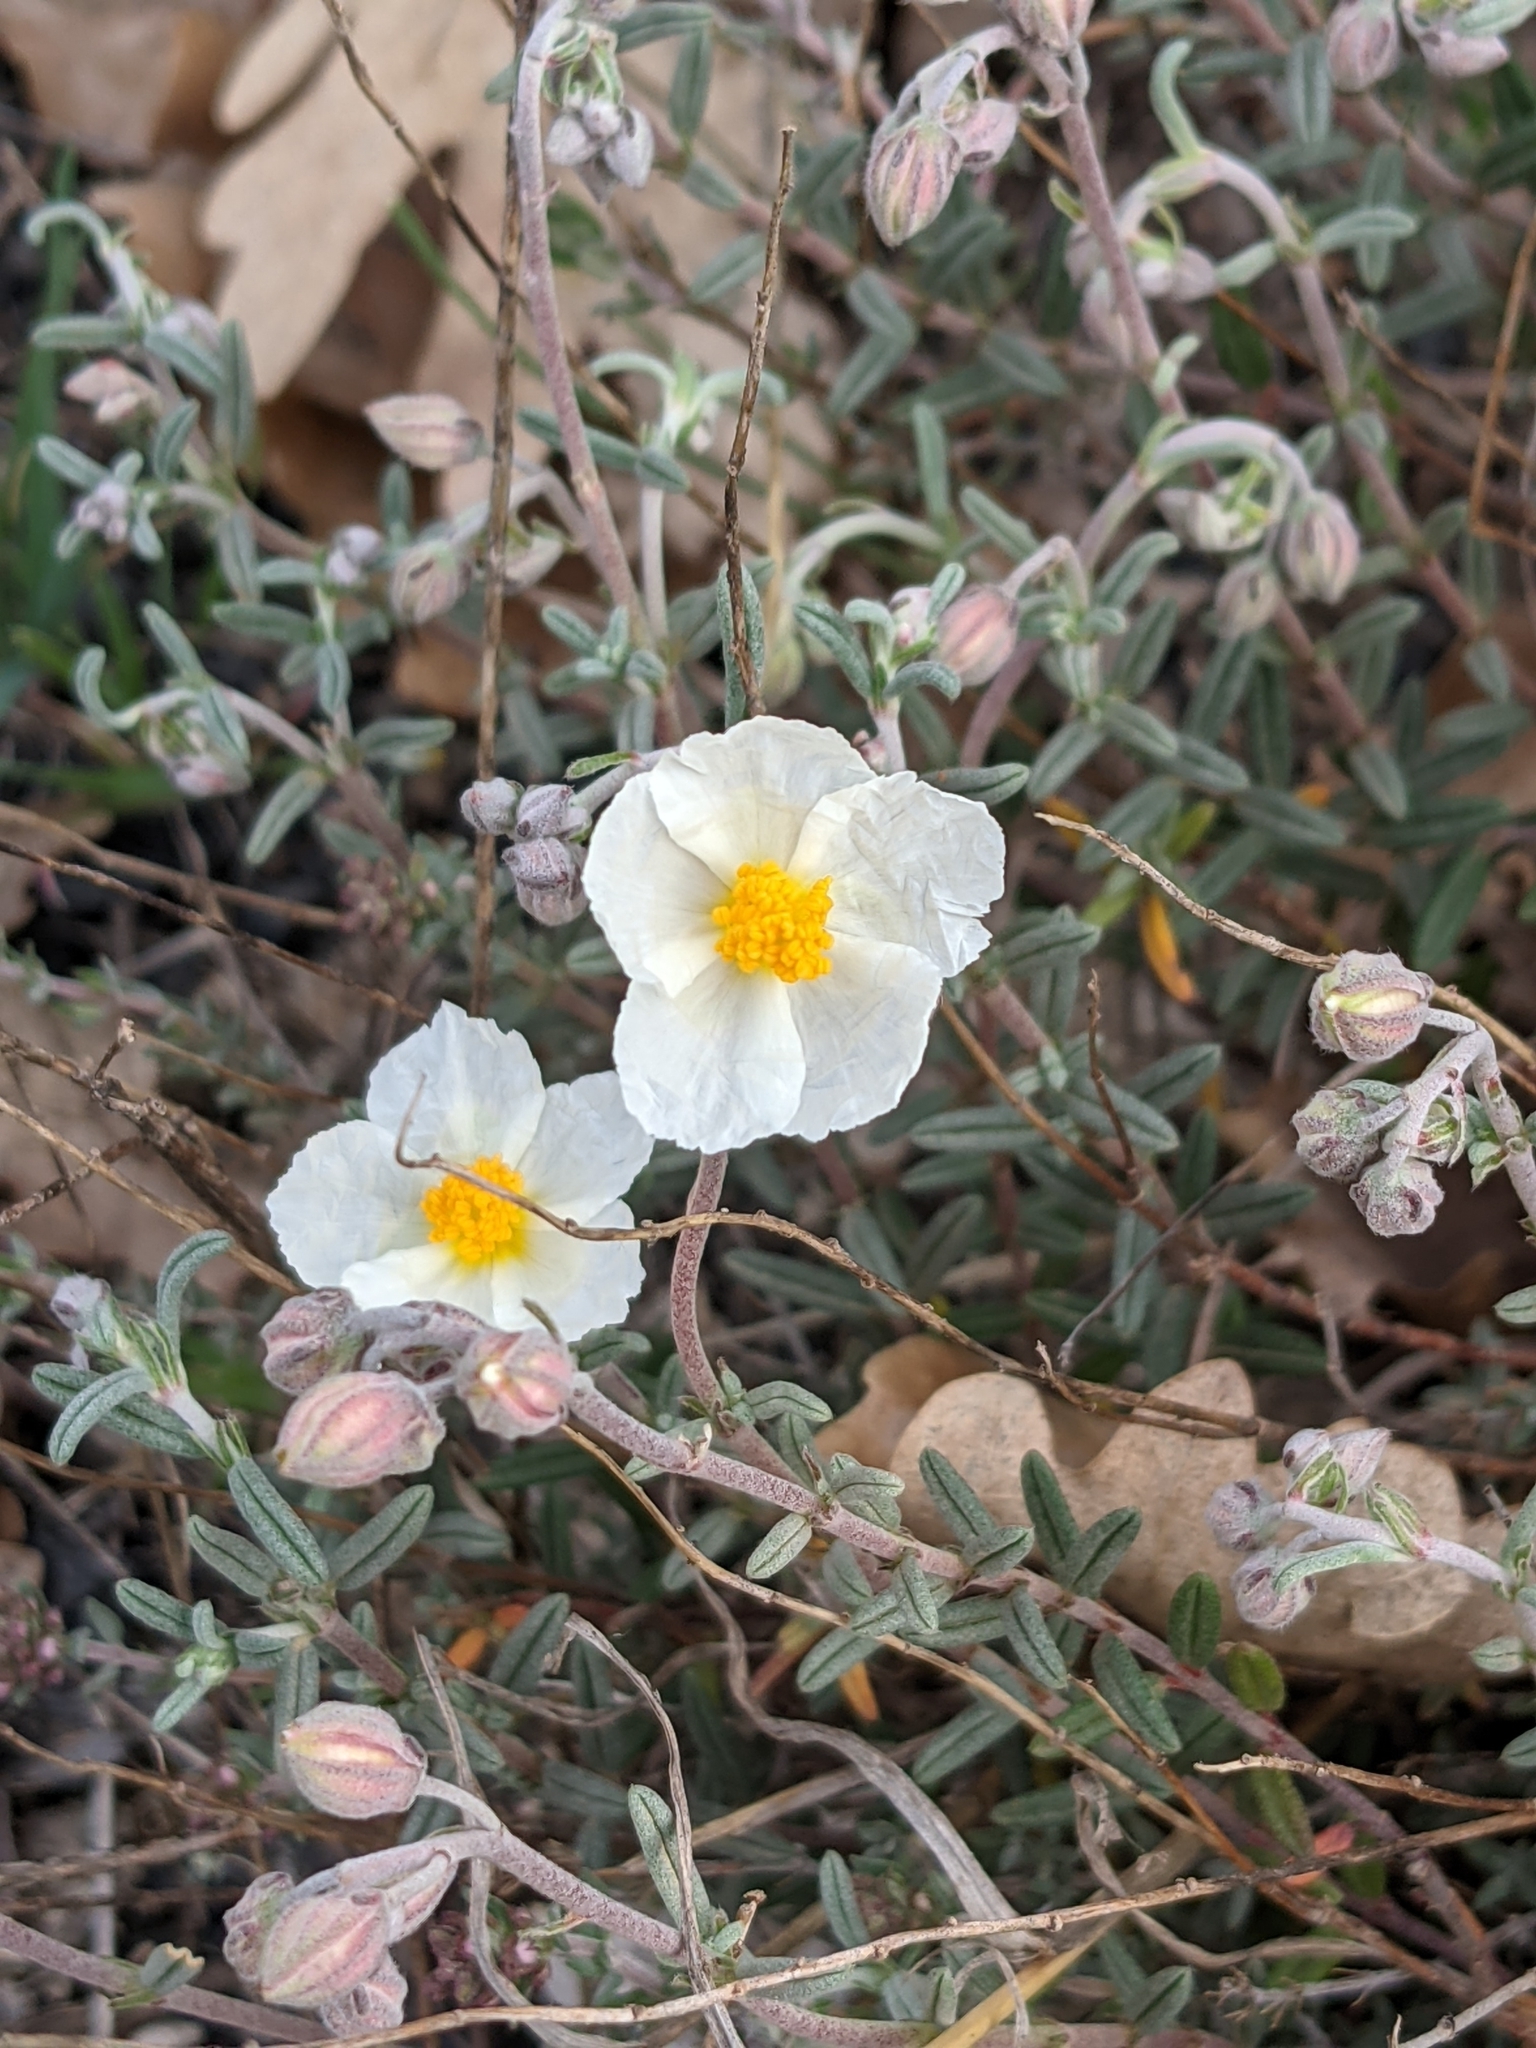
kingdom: Plantae
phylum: Tracheophyta
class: Magnoliopsida
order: Malvales
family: Cistaceae
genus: Helianthemum
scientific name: Helianthemum apenninum
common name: White rock-rose
